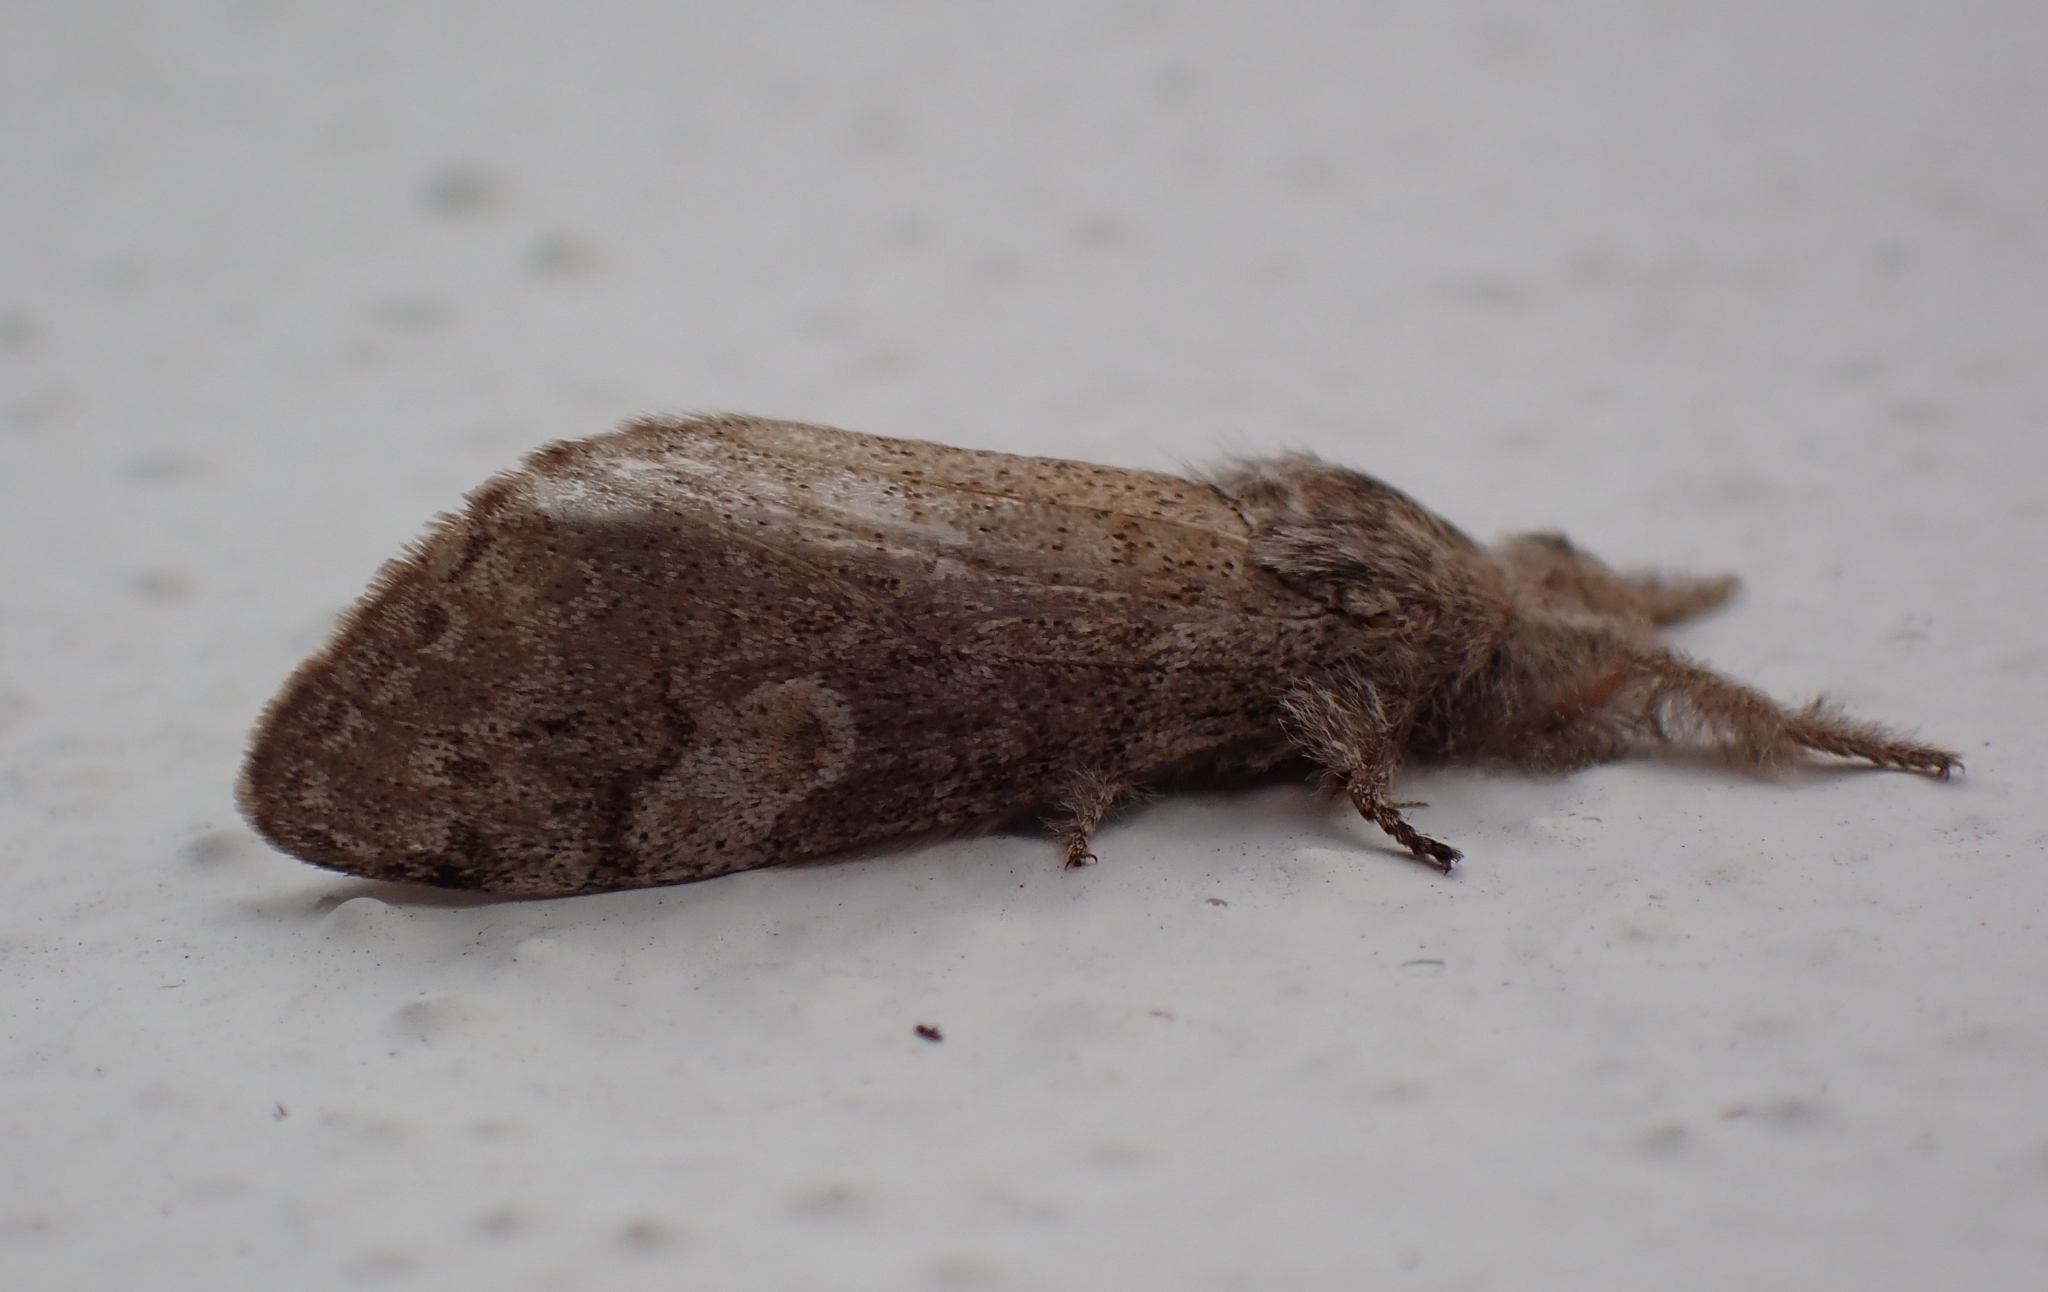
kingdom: Animalia
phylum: Arthropoda
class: Insecta
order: Lepidoptera
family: Erebidae
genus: Calliteara
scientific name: Calliteara
